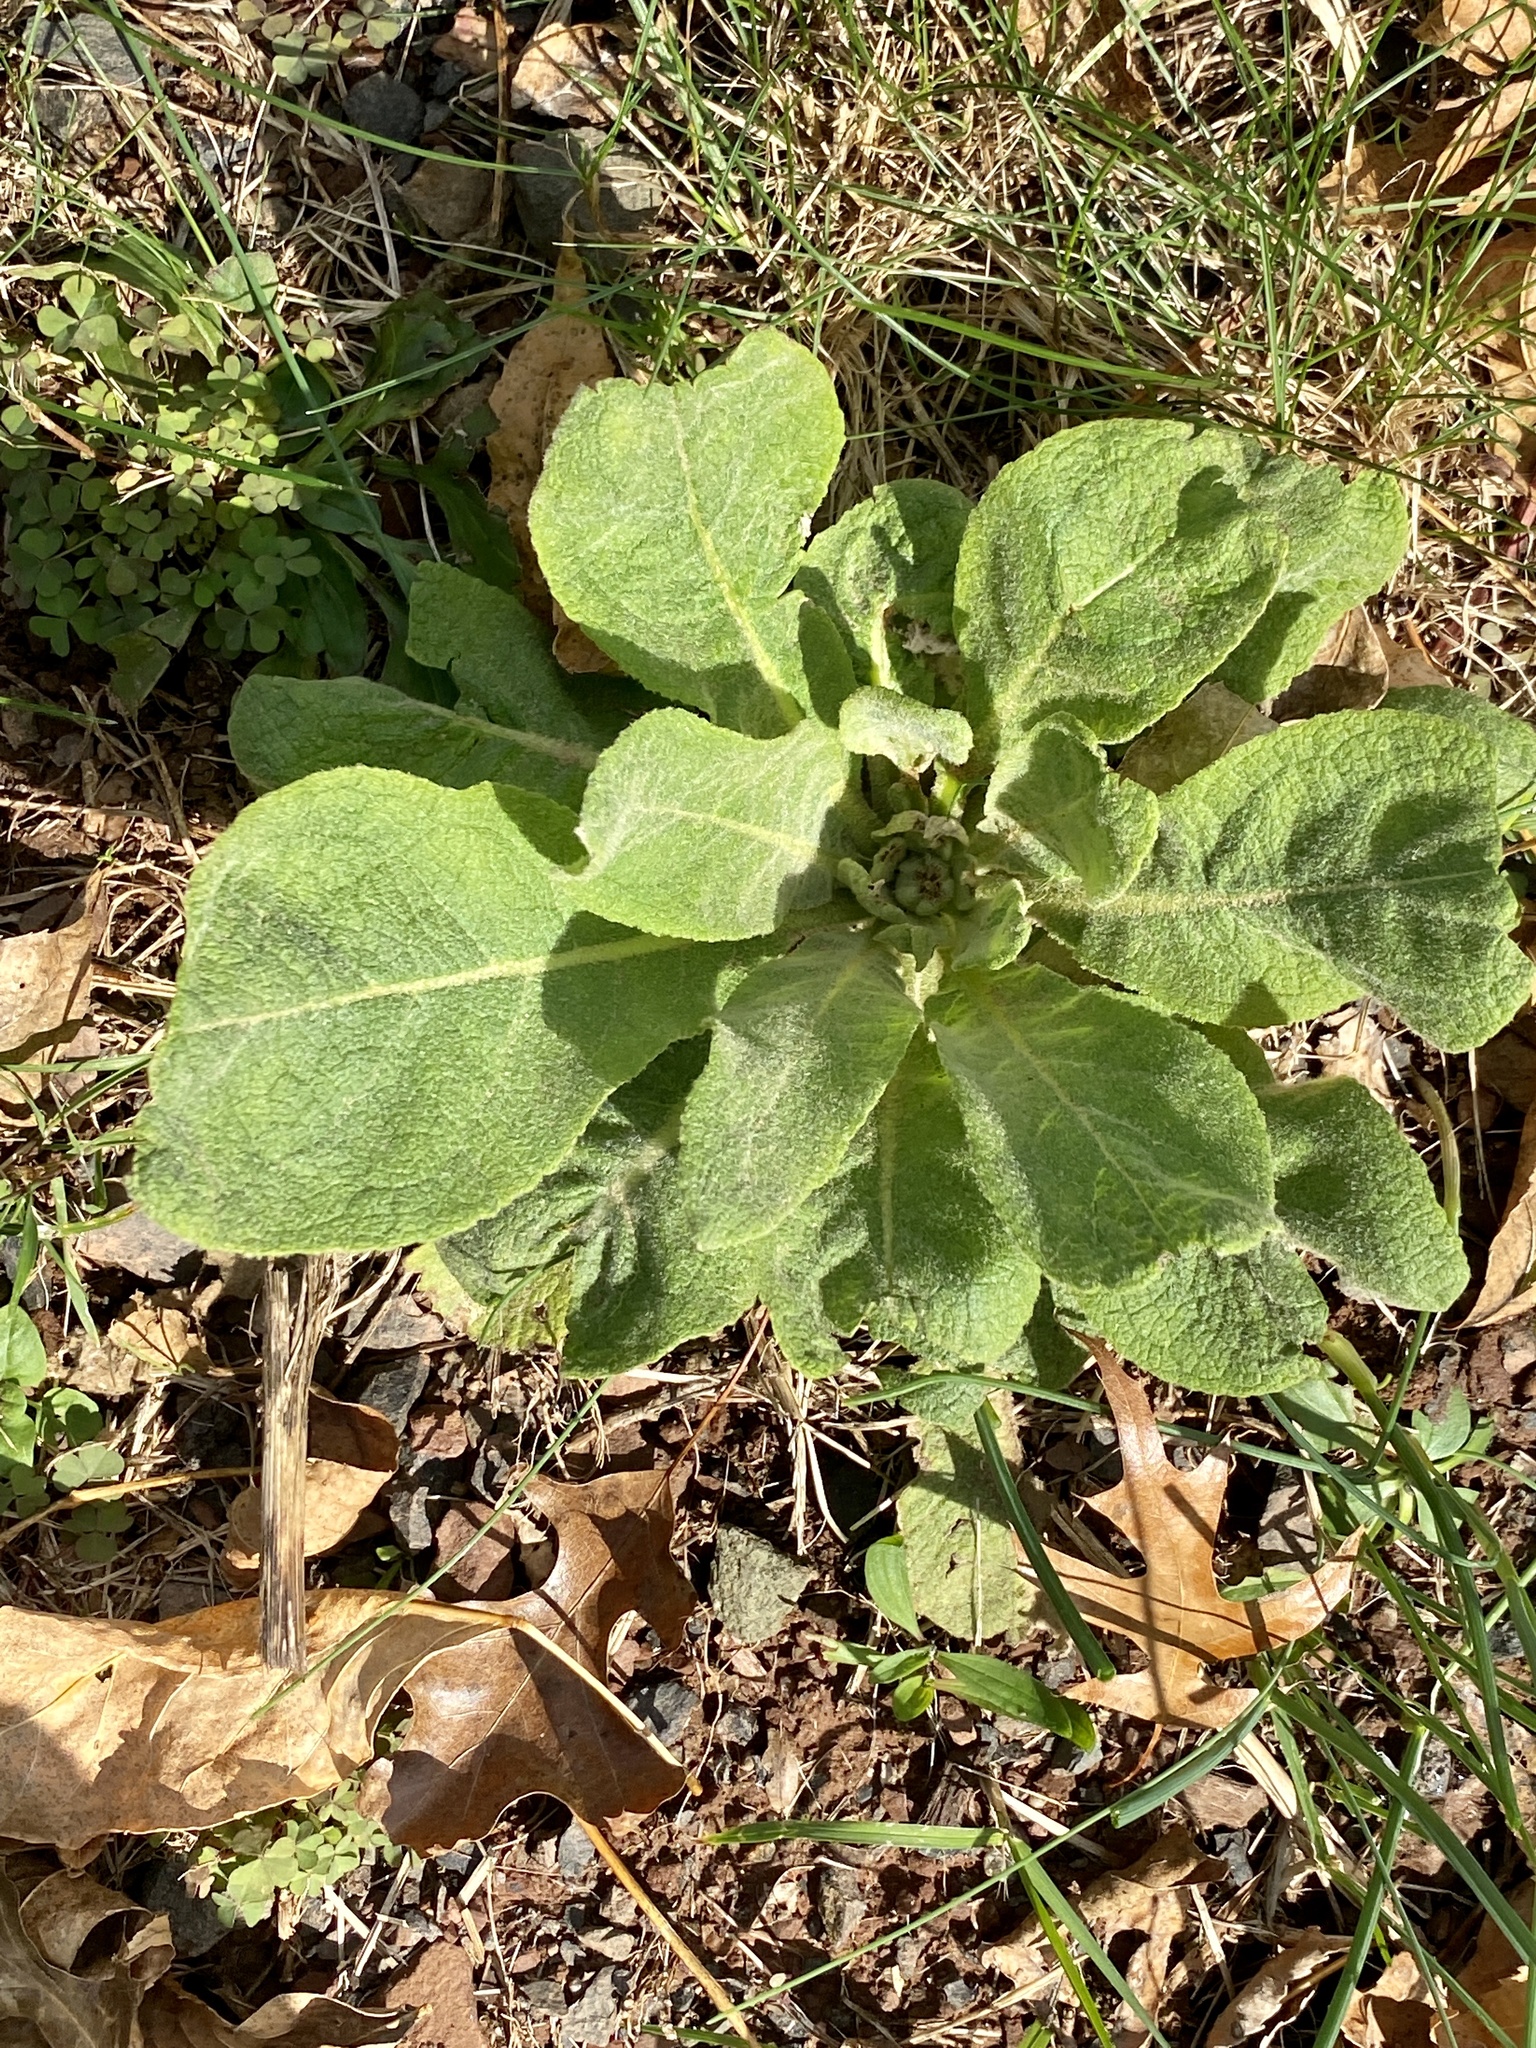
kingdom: Plantae
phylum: Tracheophyta
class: Magnoliopsida
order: Lamiales
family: Scrophulariaceae
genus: Verbascum
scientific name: Verbascum thapsus
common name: Common mullein
